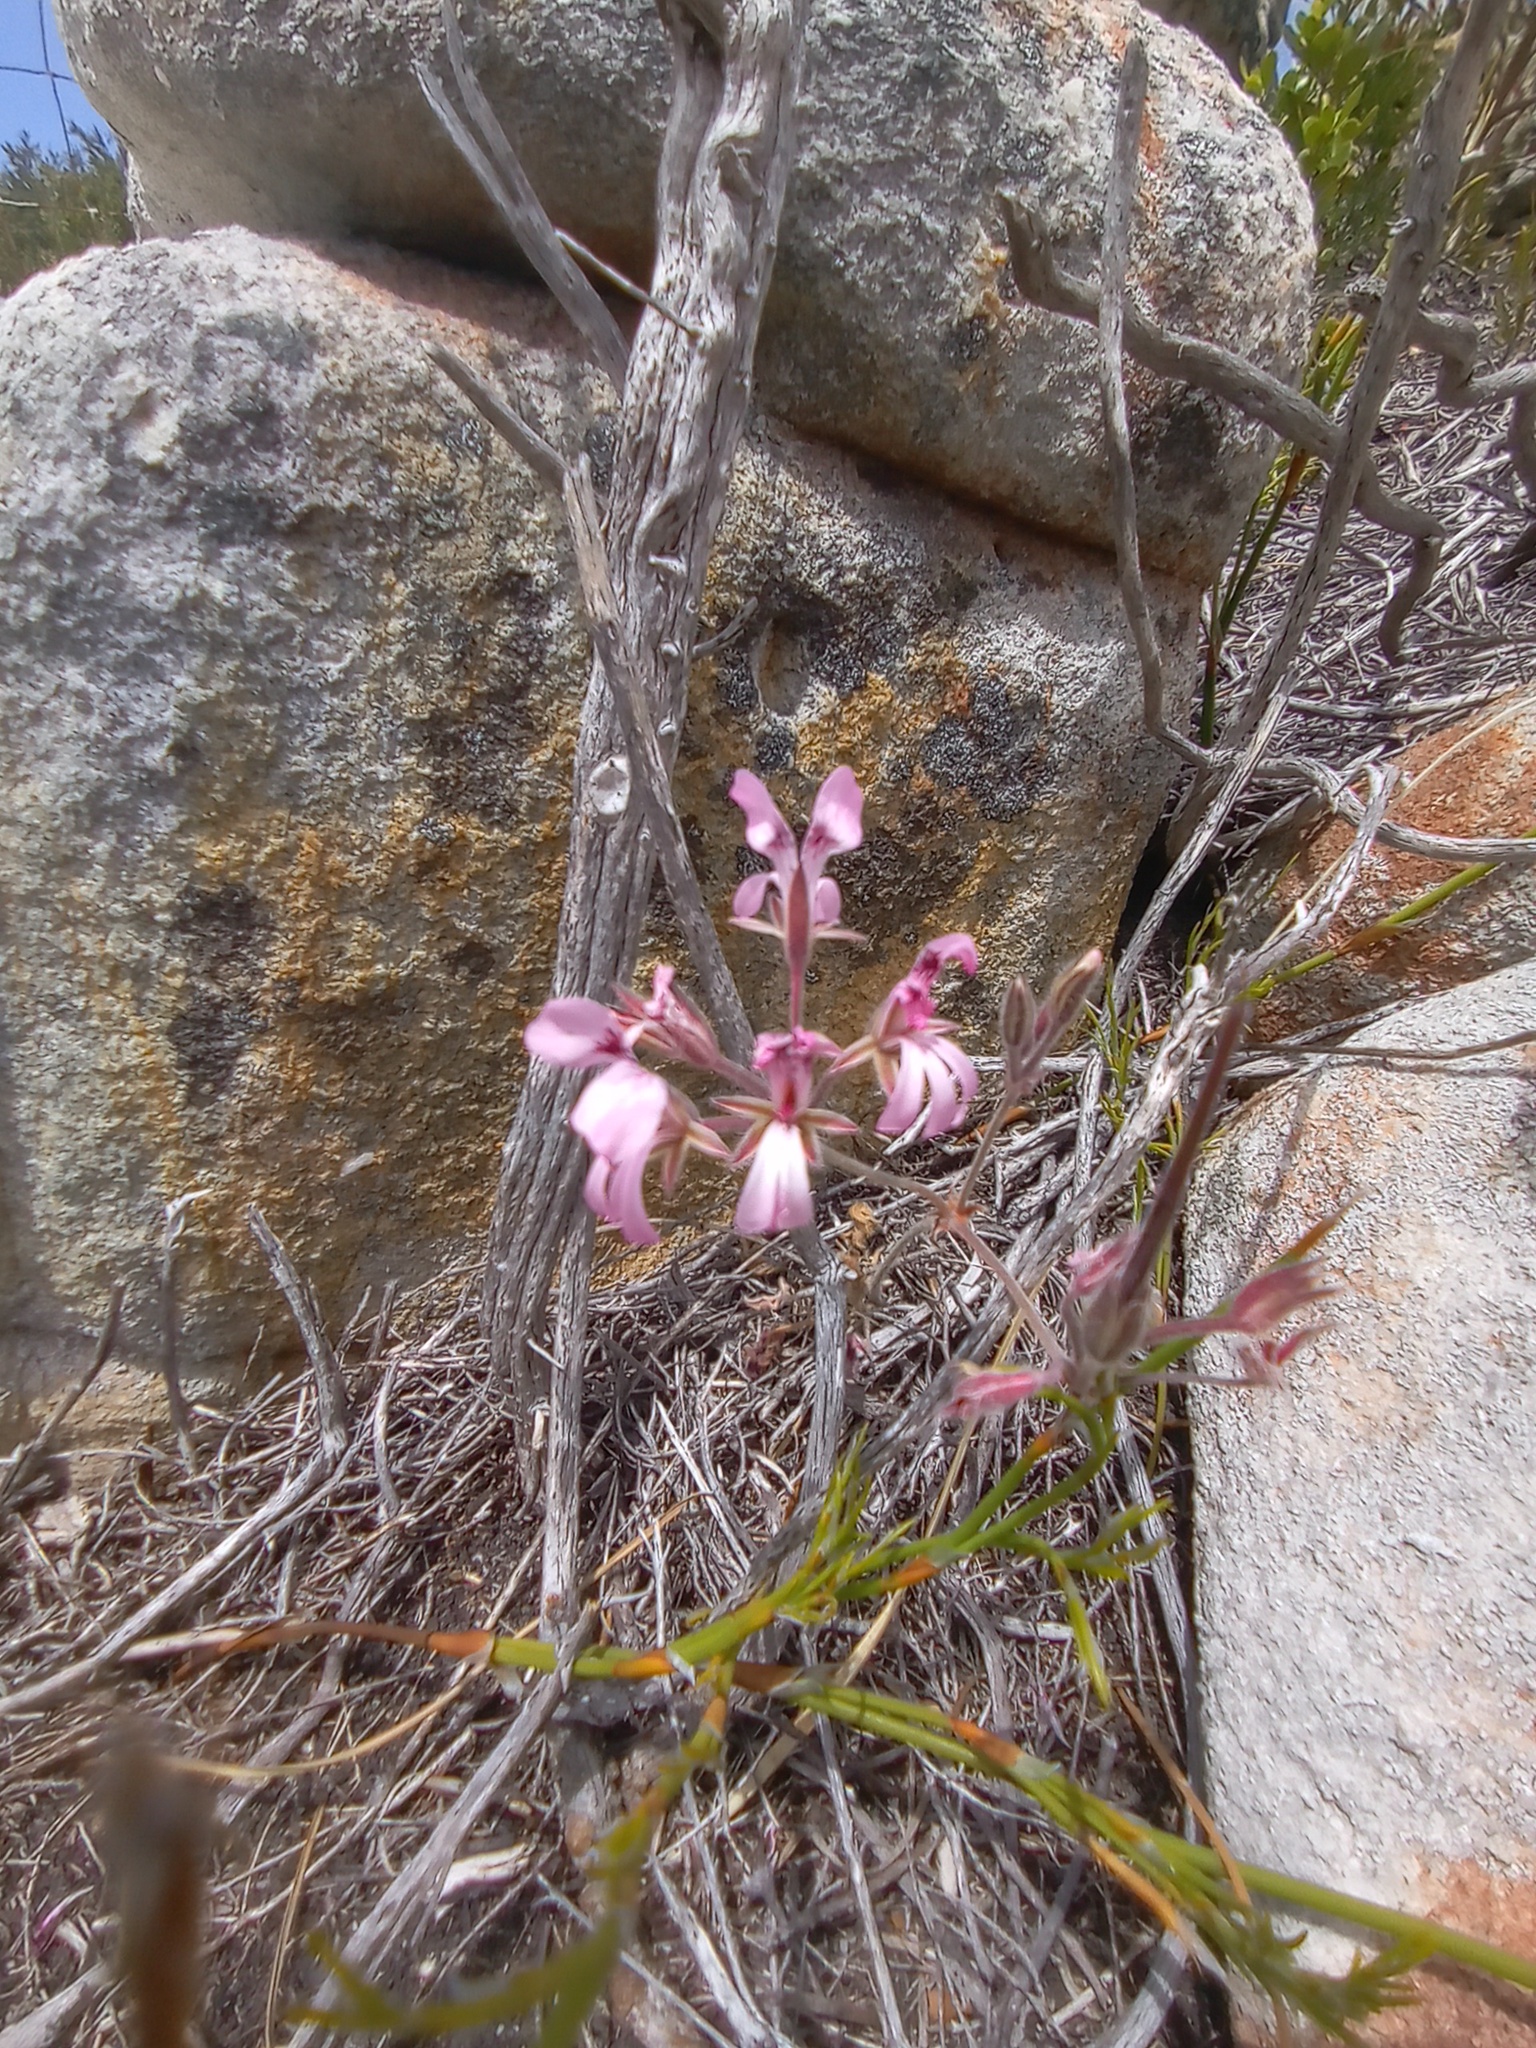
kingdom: Plantae
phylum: Tracheophyta
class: Magnoliopsida
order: Geraniales
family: Geraniaceae
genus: Pelargonium
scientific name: Pelargonium pinnatum
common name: Pinnated pelargonium
